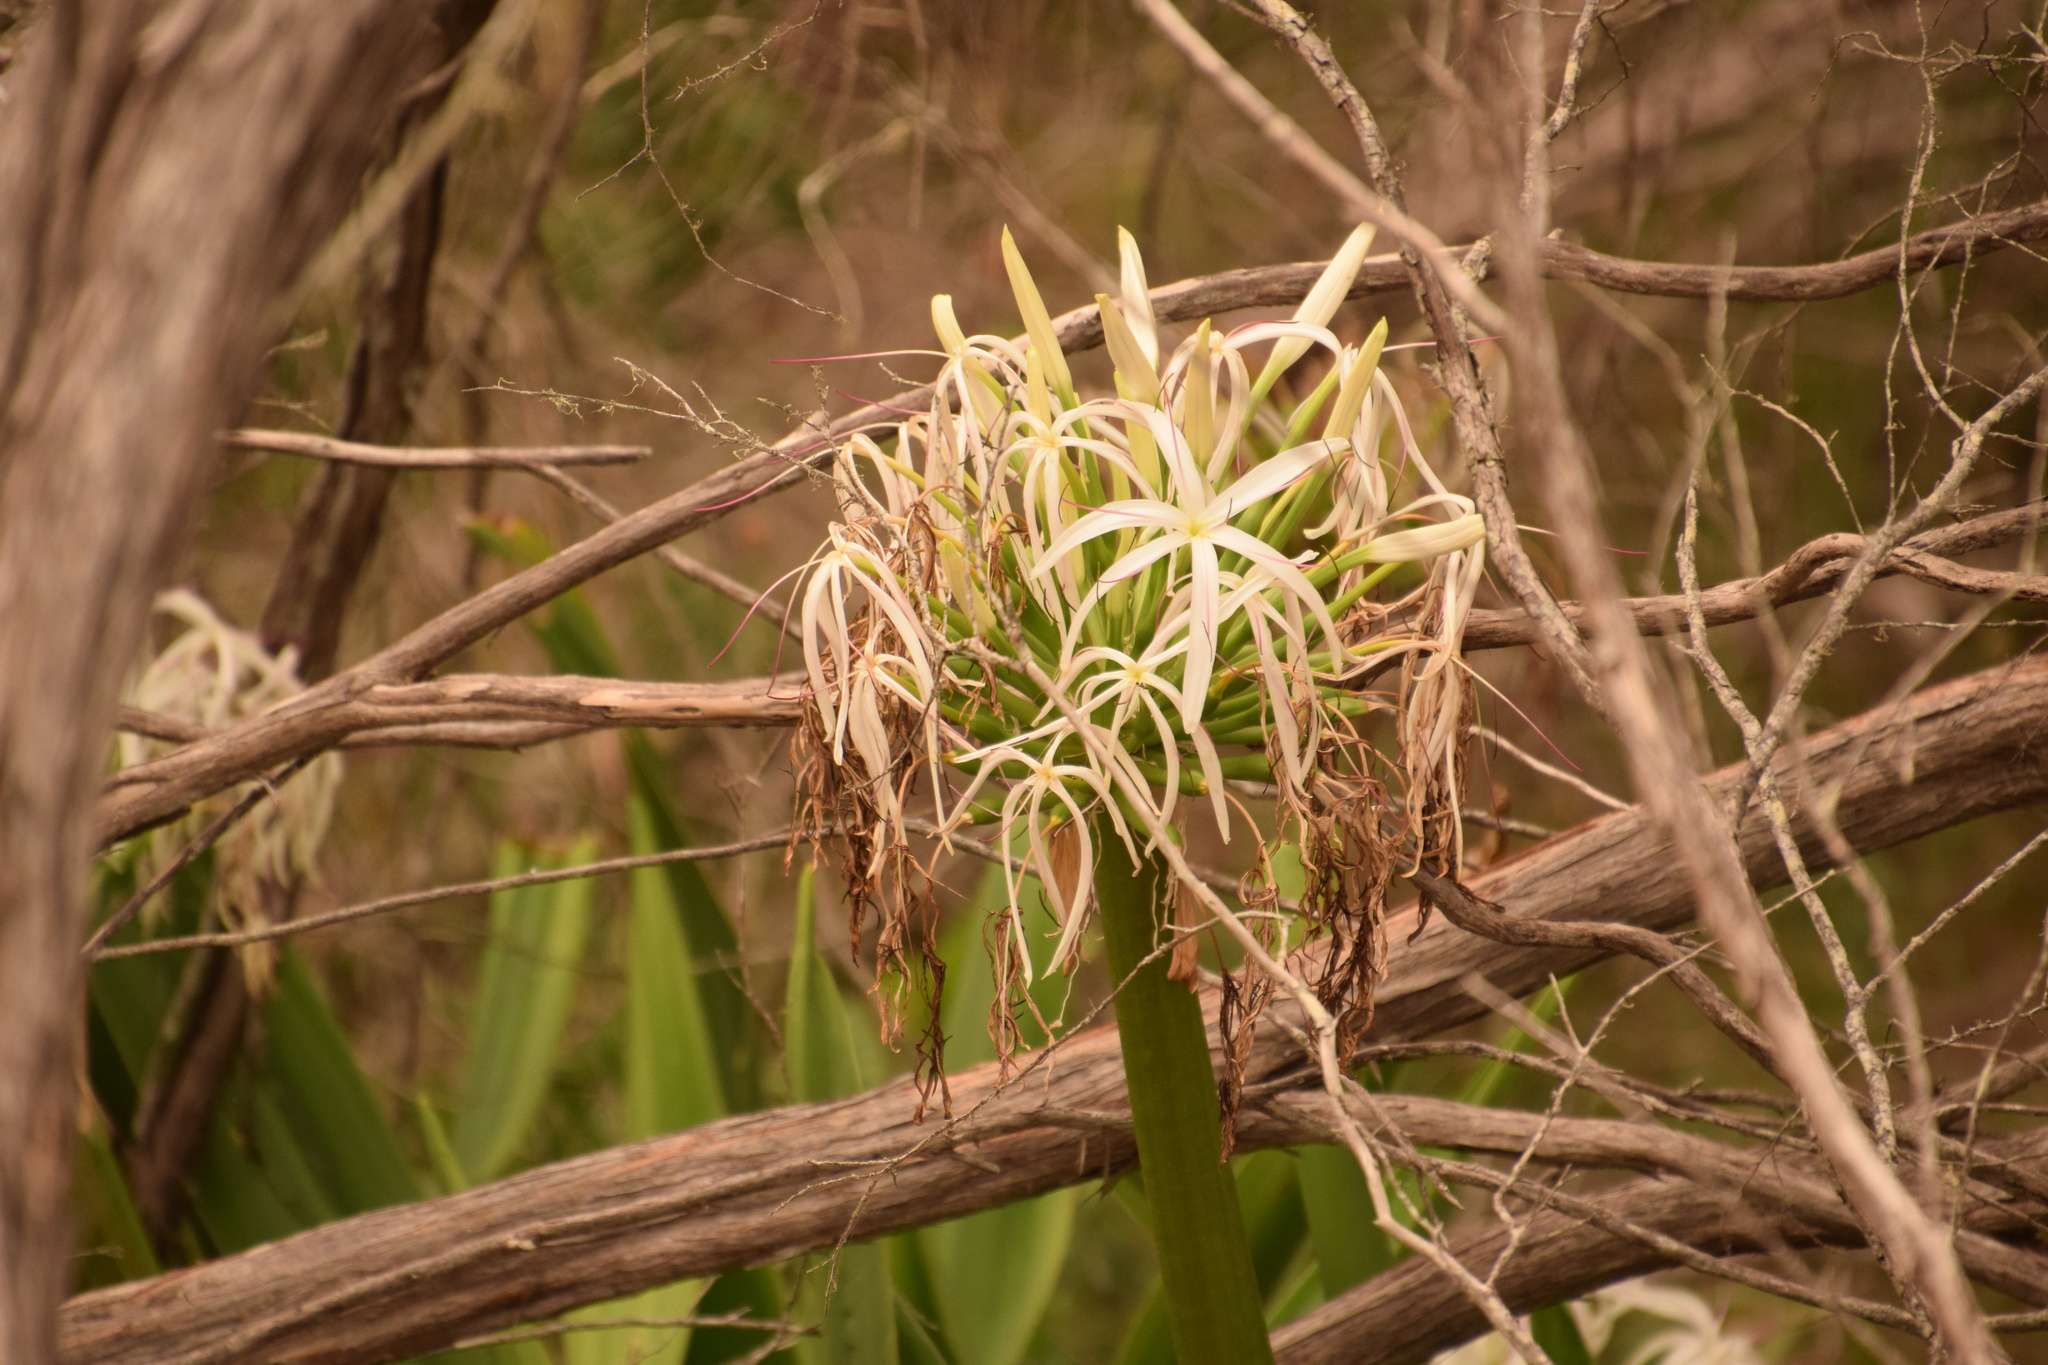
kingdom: Plantae
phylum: Tracheophyta
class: Liliopsida
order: Asparagales
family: Amaryllidaceae
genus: Crinum
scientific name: Crinum pedunculatum
